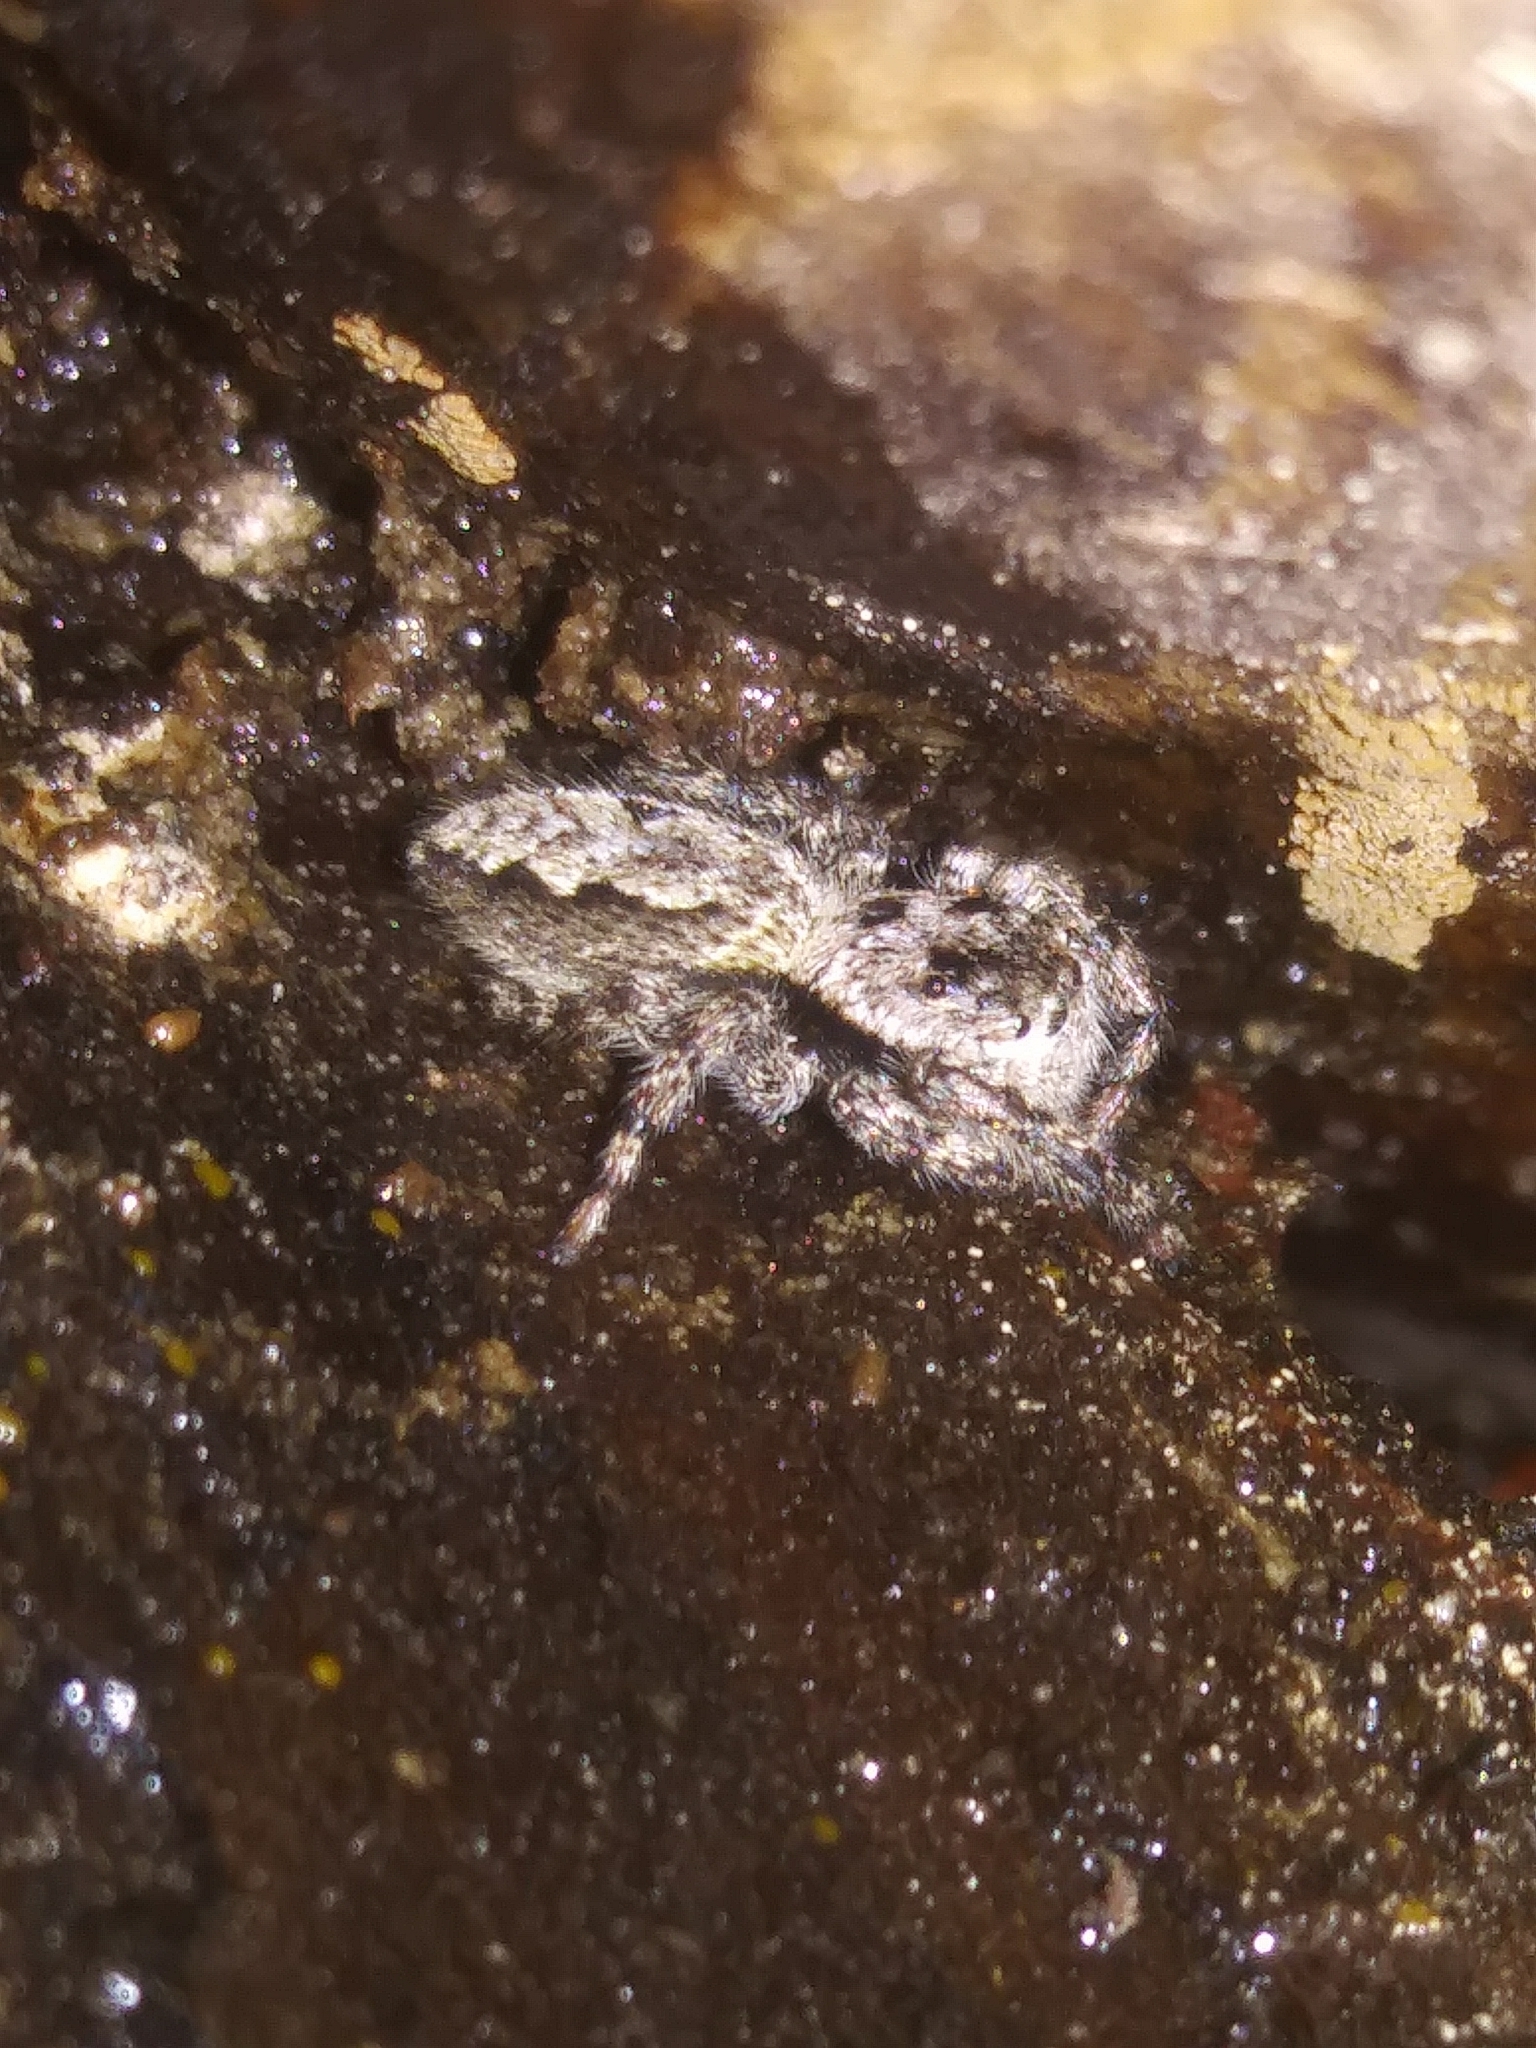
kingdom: Animalia
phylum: Arthropoda
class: Arachnida
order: Araneae
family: Salticidae
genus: Platycryptus
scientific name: Platycryptus undatus
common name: Tan jumping spider
